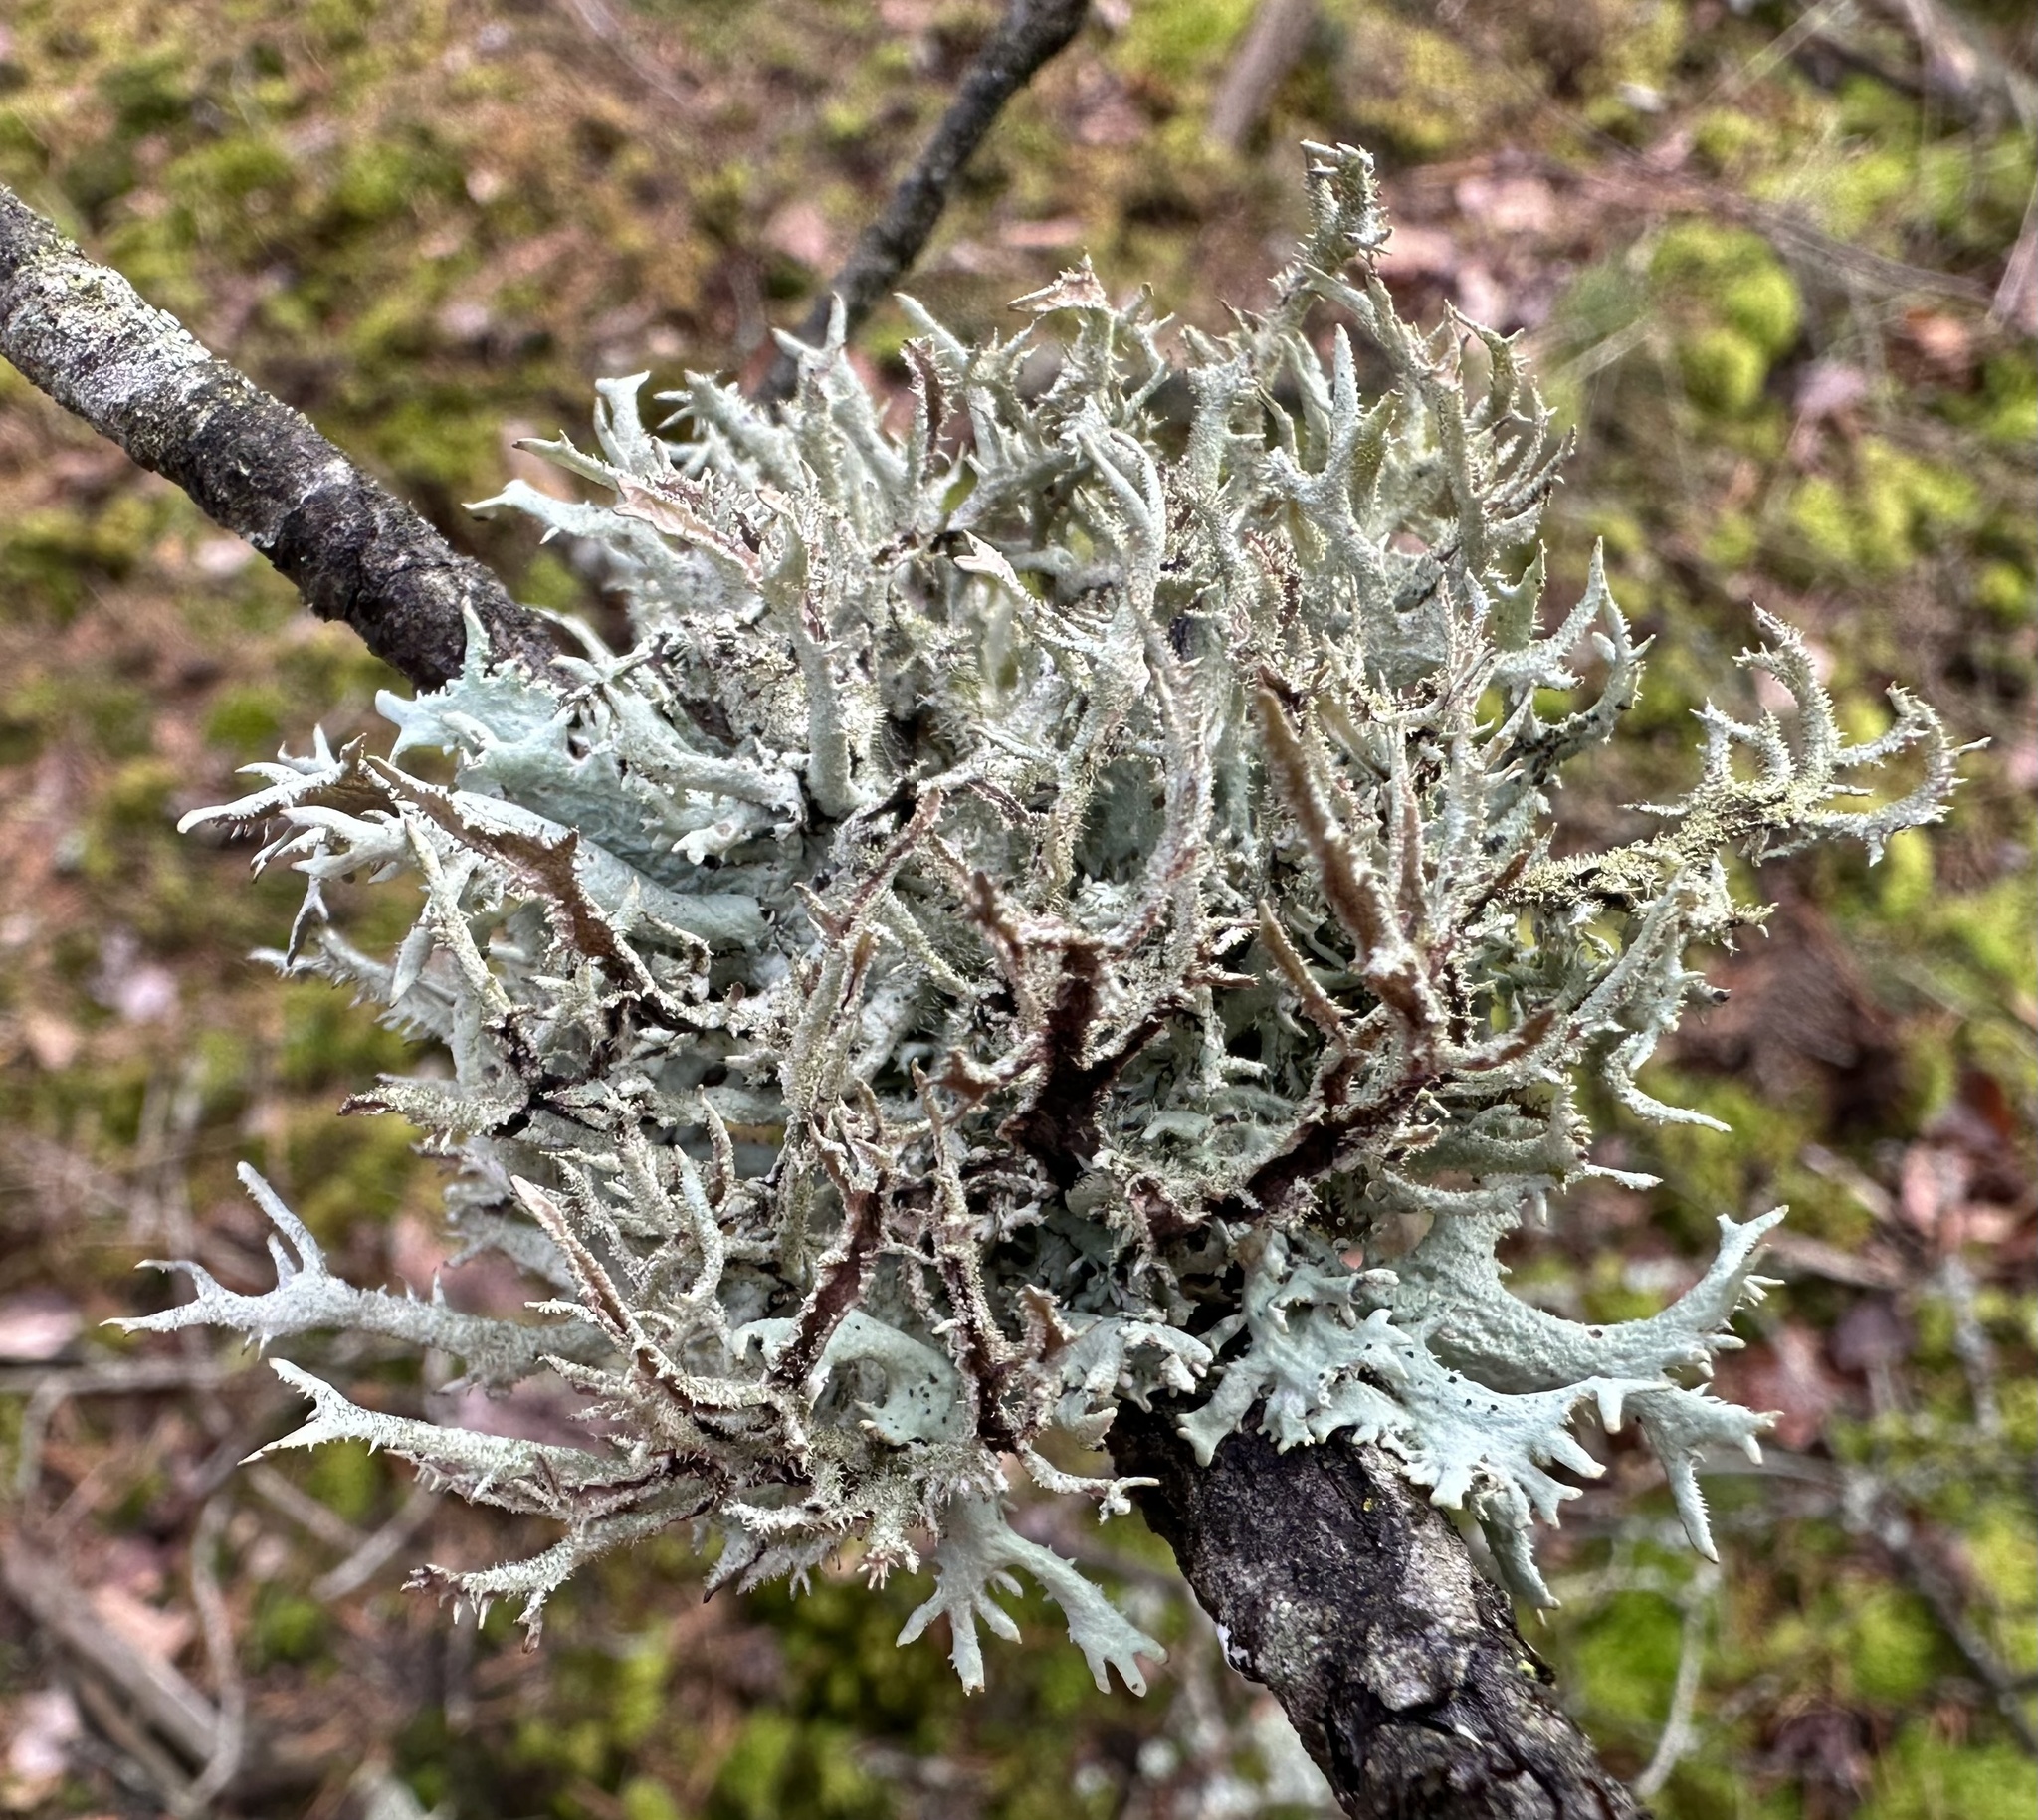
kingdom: Fungi
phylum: Ascomycota
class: Lecanoromycetes
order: Lecanorales
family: Parmeliaceae
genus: Pseudevernia
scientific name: Pseudevernia furfuracea
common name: Tree moss
